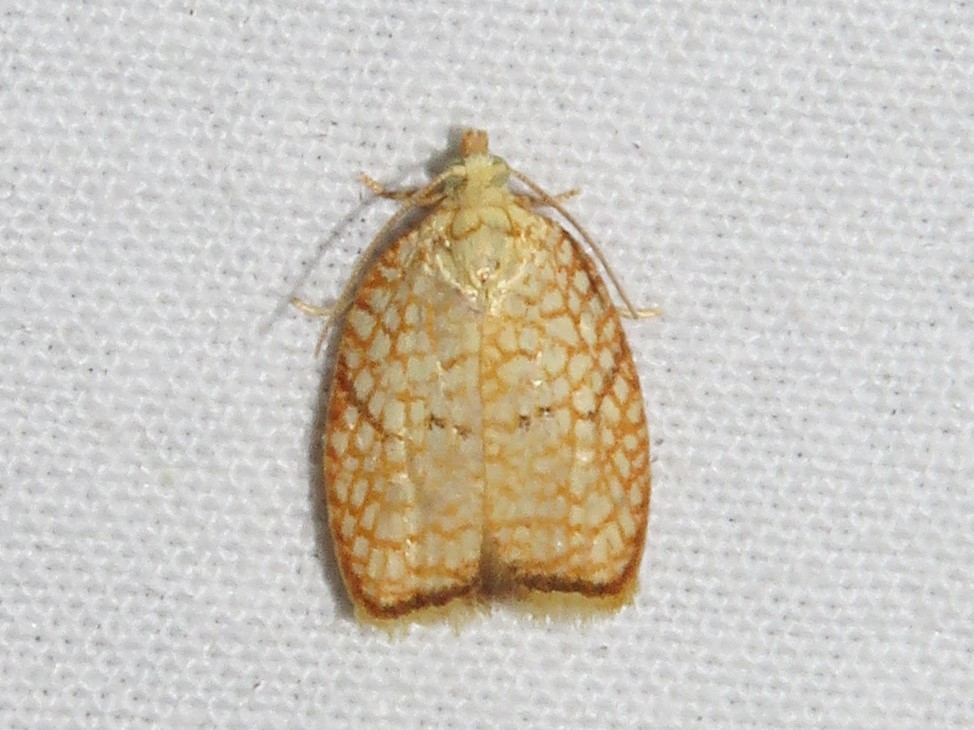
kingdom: Animalia
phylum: Arthropoda
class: Insecta
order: Lepidoptera
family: Tortricidae
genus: Acleris
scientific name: Acleris forsskaleana
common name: Maple button
